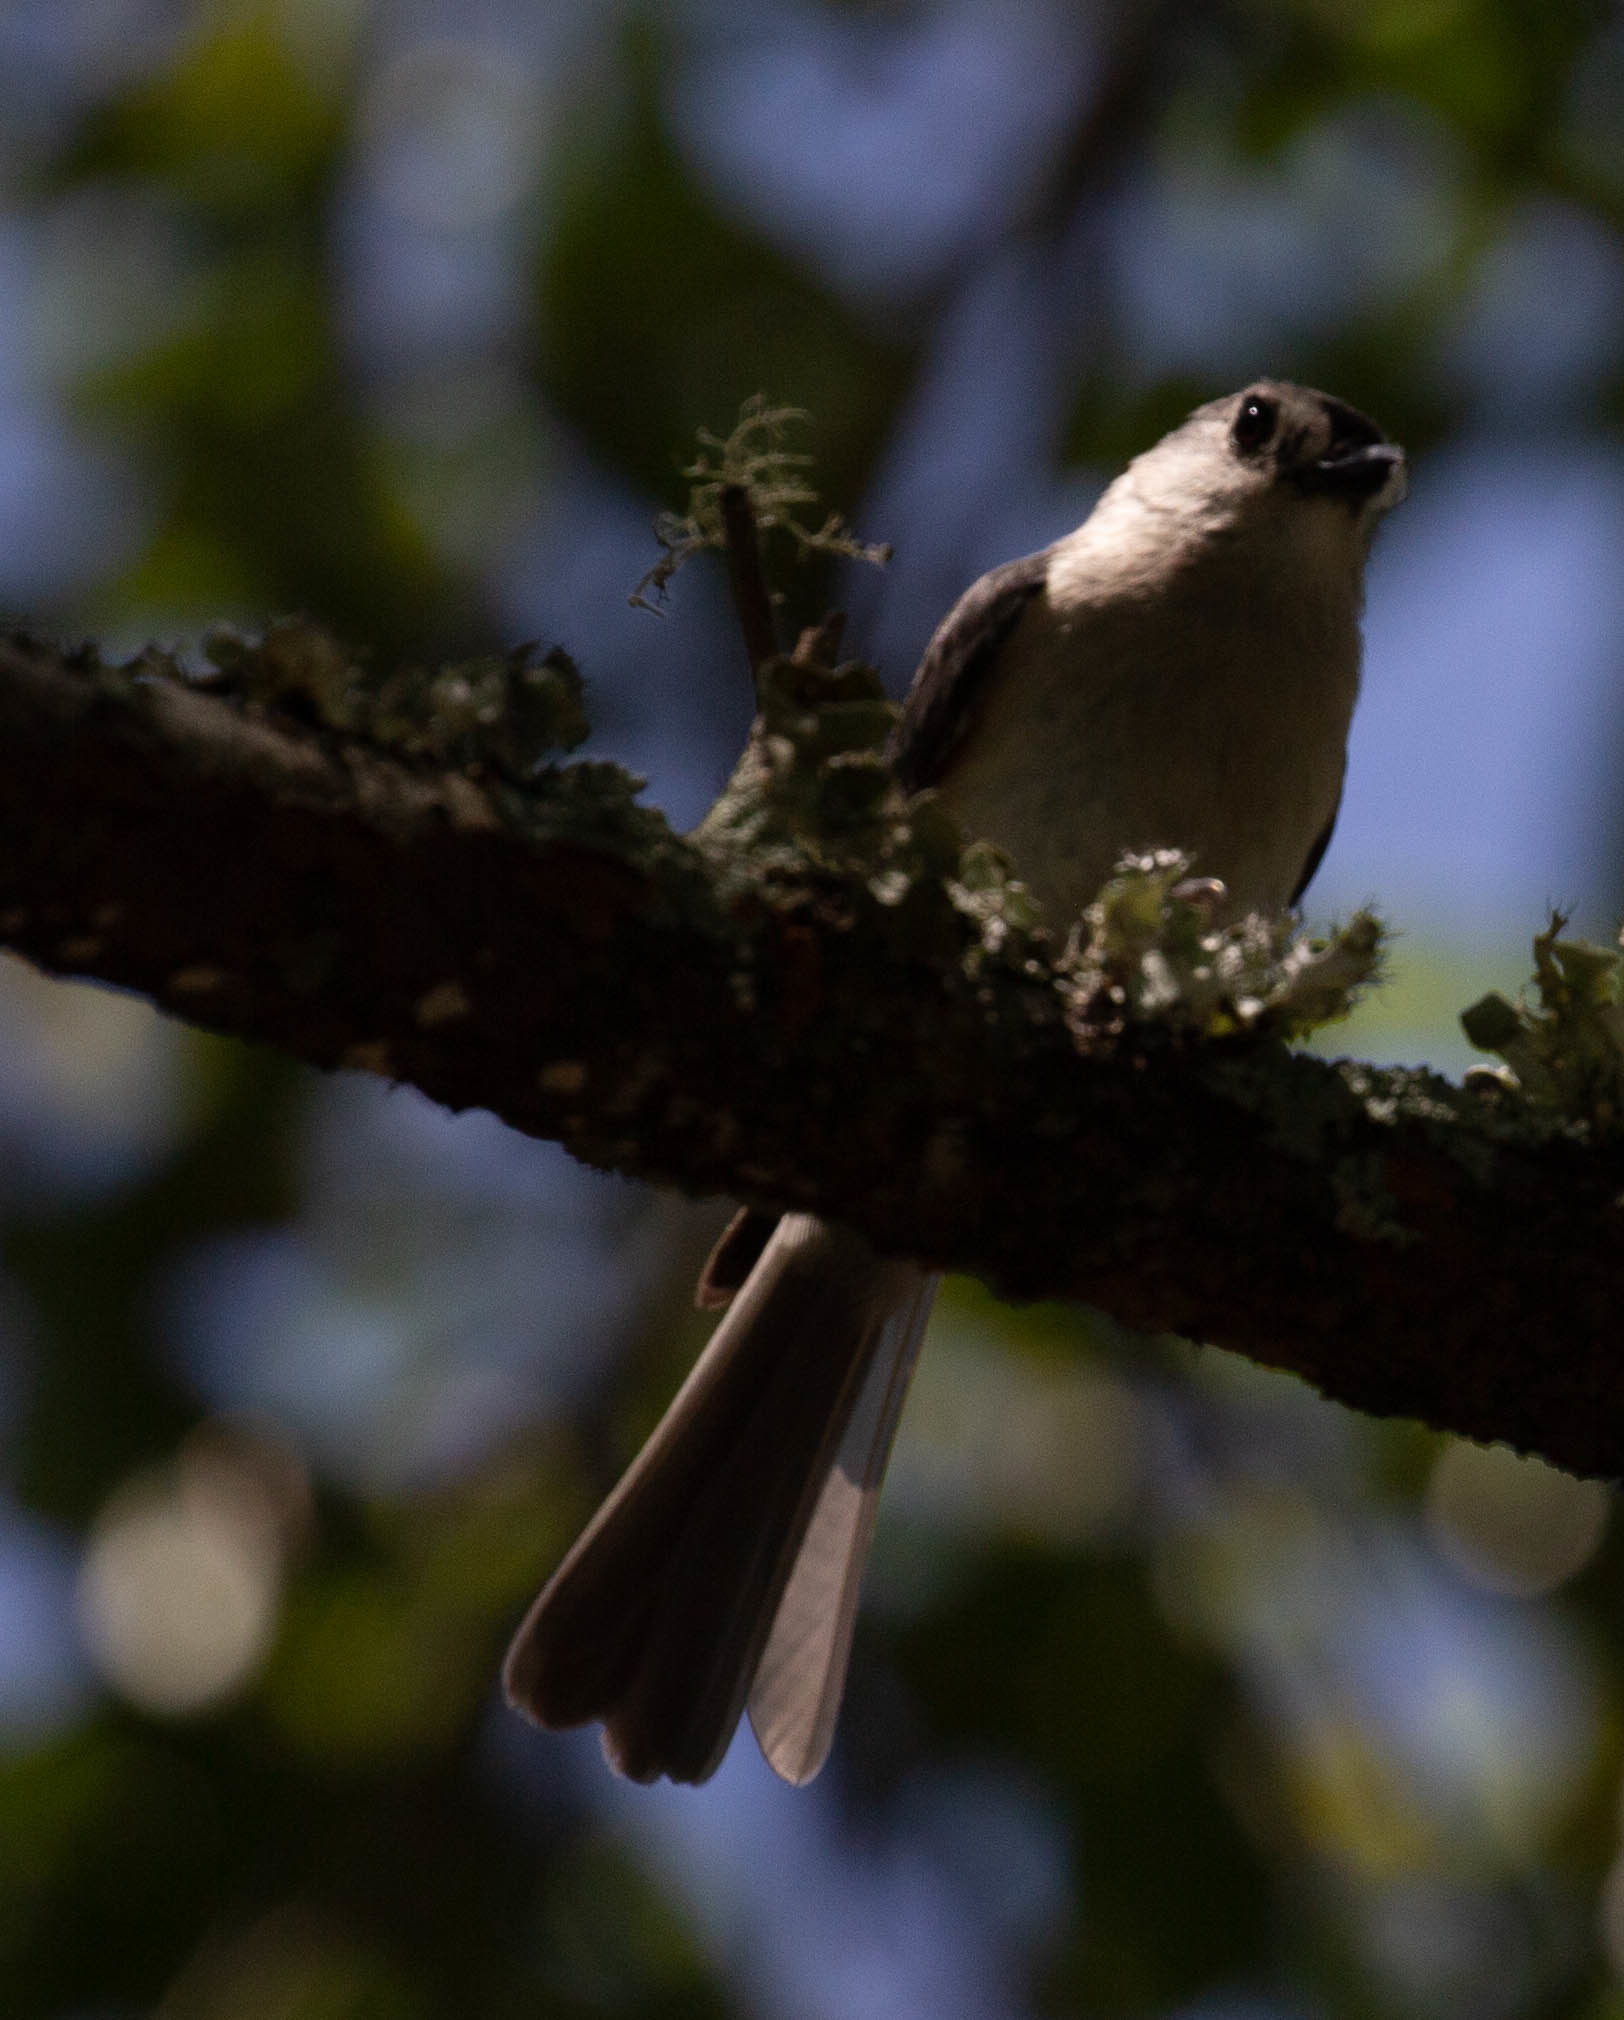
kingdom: Animalia
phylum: Chordata
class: Aves
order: Passeriformes
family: Paridae
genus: Baeolophus
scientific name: Baeolophus bicolor
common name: Tufted titmouse
